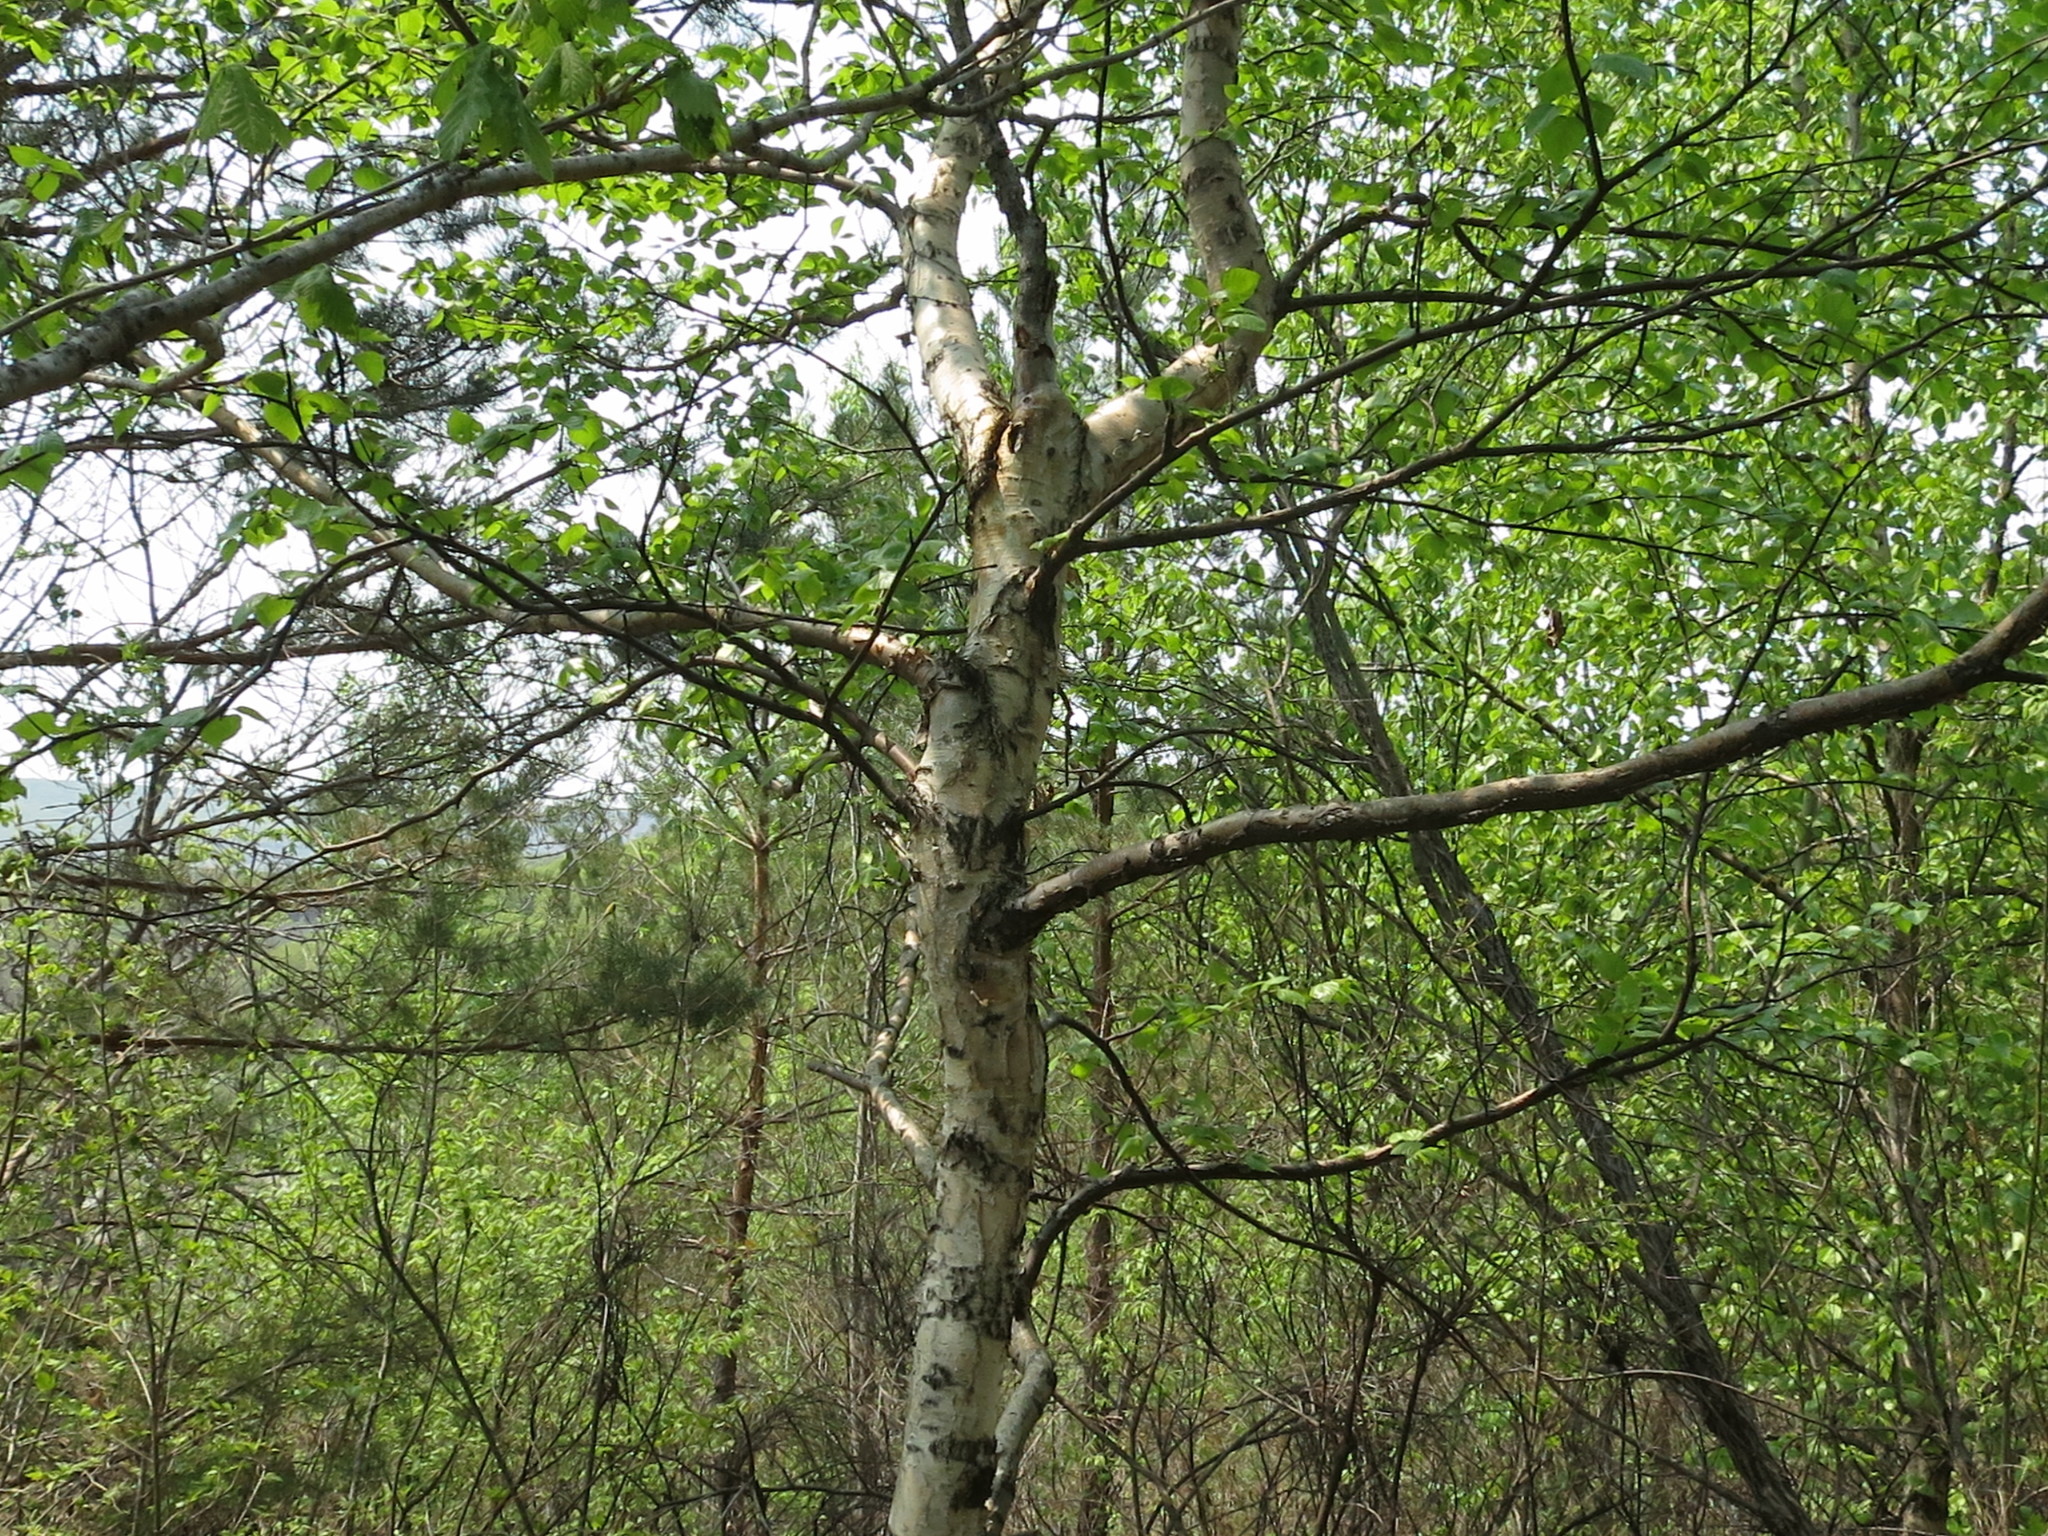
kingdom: Plantae
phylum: Tracheophyta
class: Magnoliopsida
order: Fagales
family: Betulaceae
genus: Betula
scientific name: Betula pendula
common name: Silver birch
